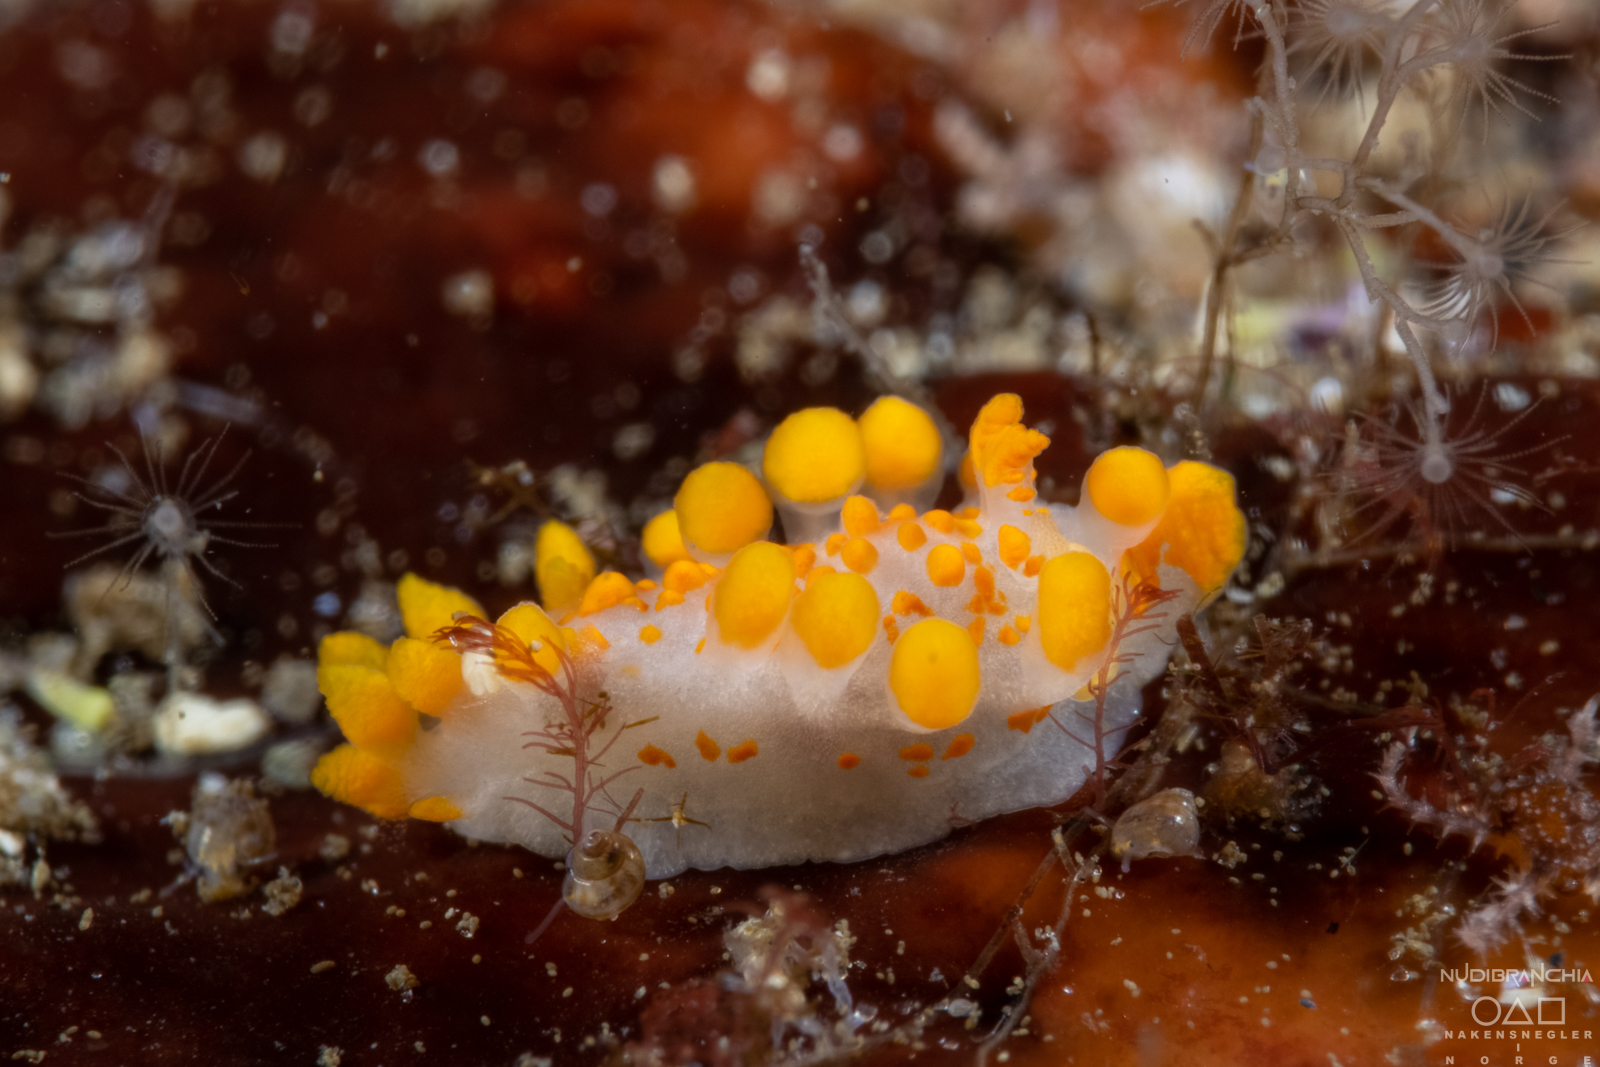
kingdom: Animalia
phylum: Mollusca
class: Gastropoda
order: Nudibranchia
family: Polyceridae
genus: Limacia
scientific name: Limacia clavigera
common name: Orange-clubbed sea slug
